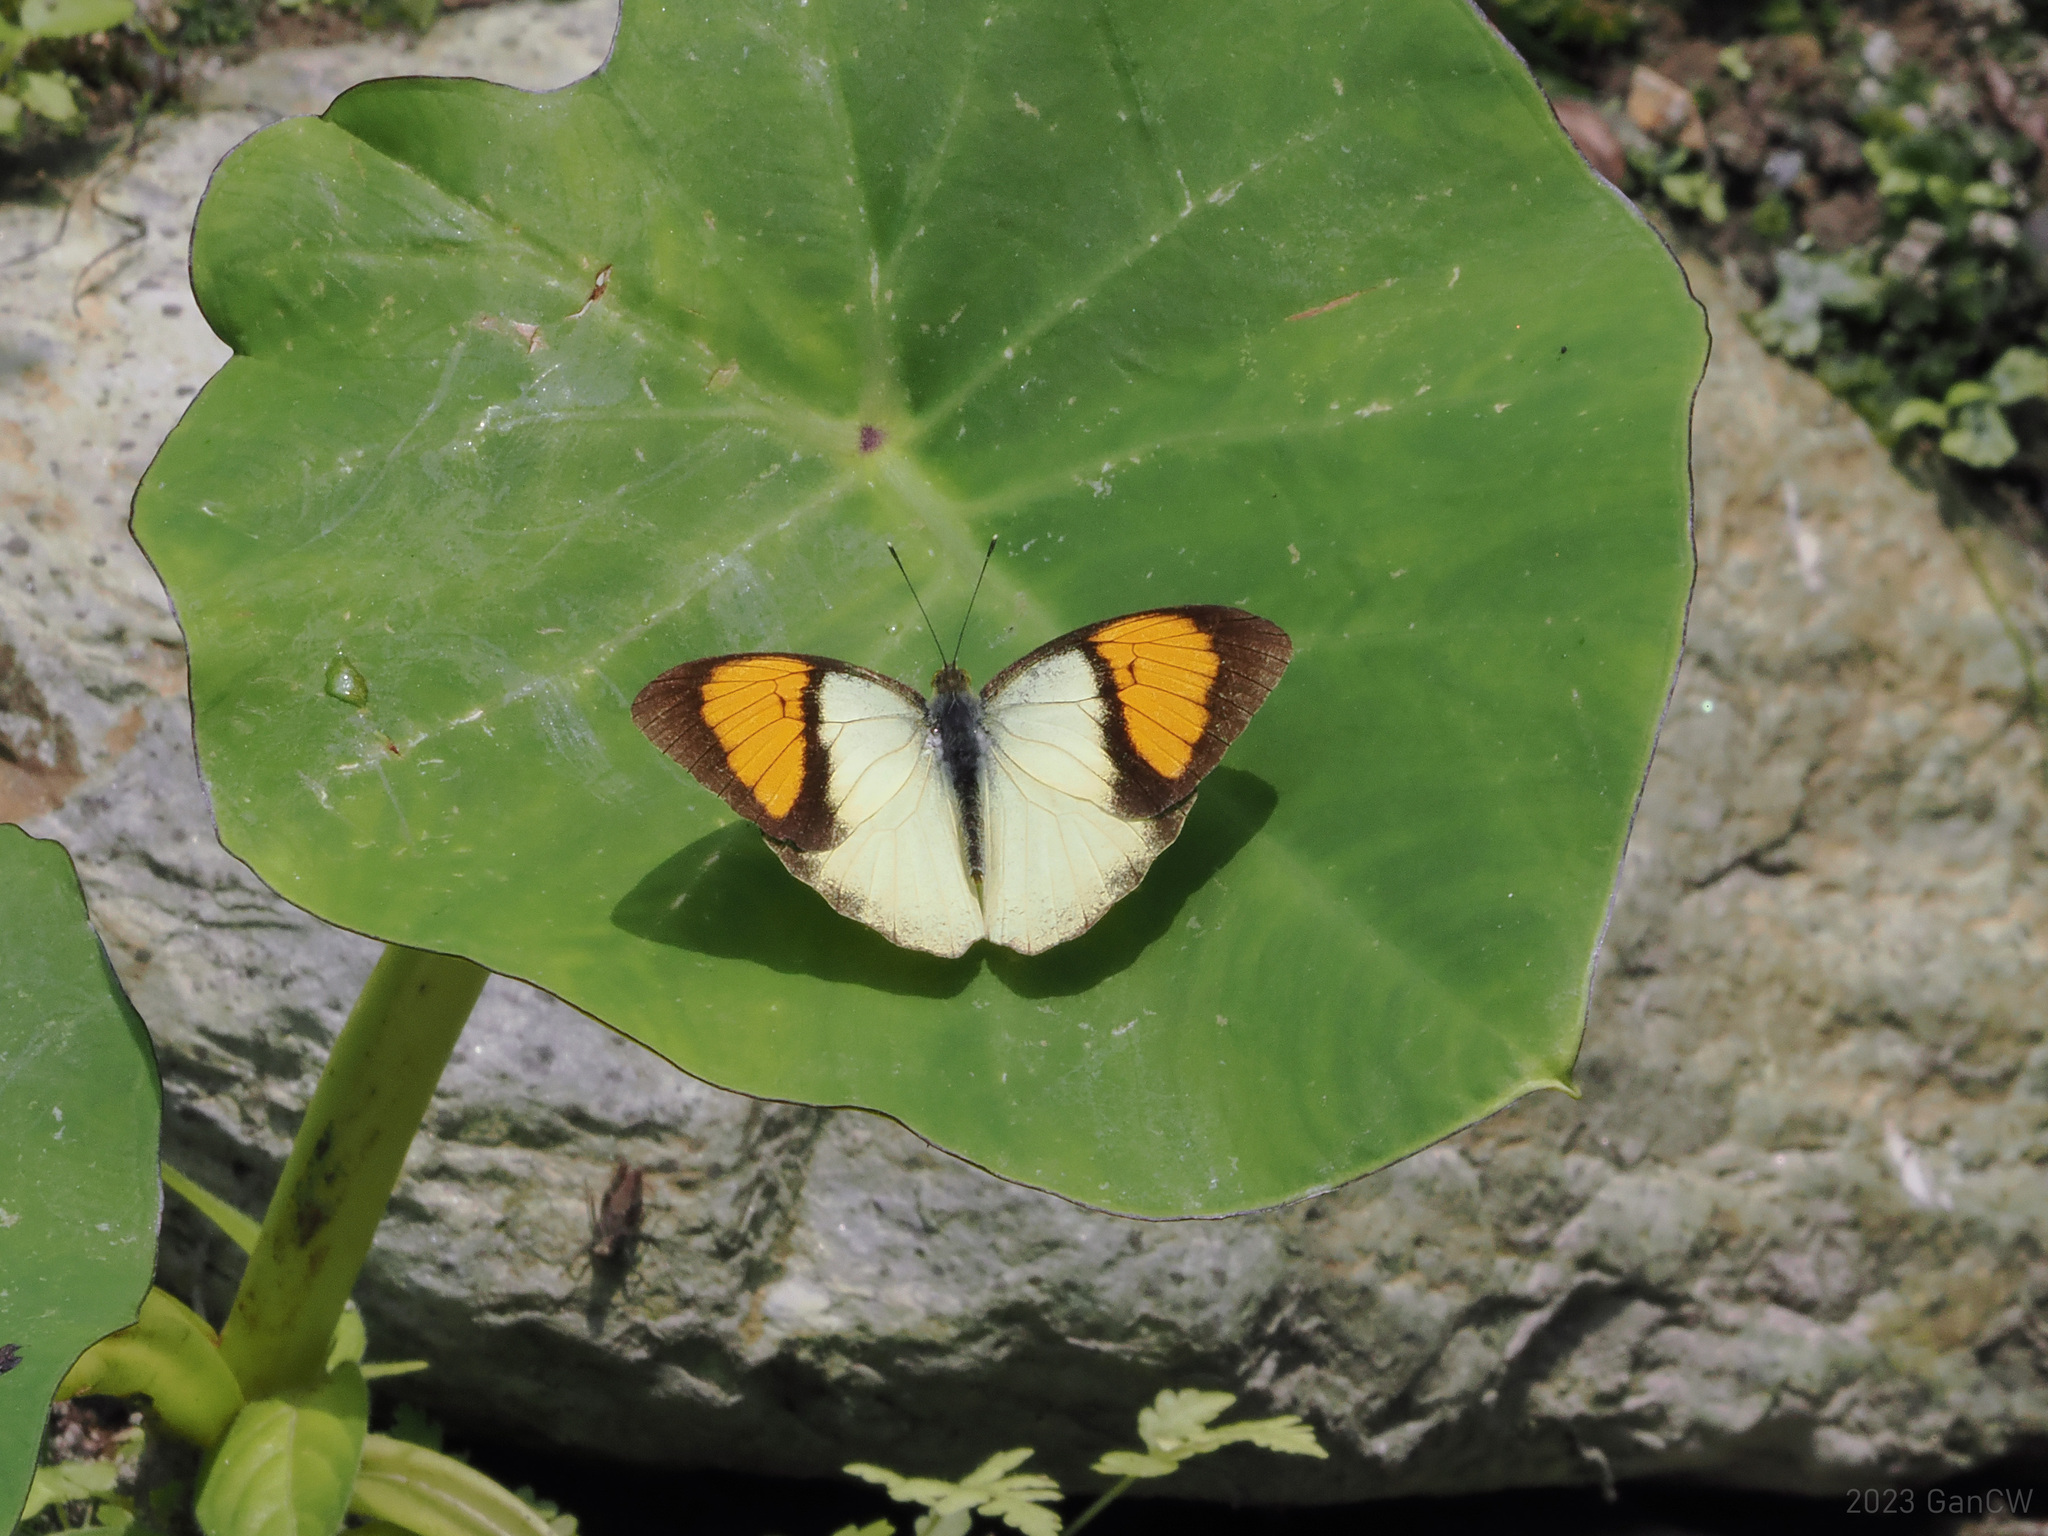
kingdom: Animalia
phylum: Arthropoda
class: Insecta
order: Lepidoptera
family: Pieridae
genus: Ixias
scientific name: Ixias pyrene
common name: Yellow orange tip
